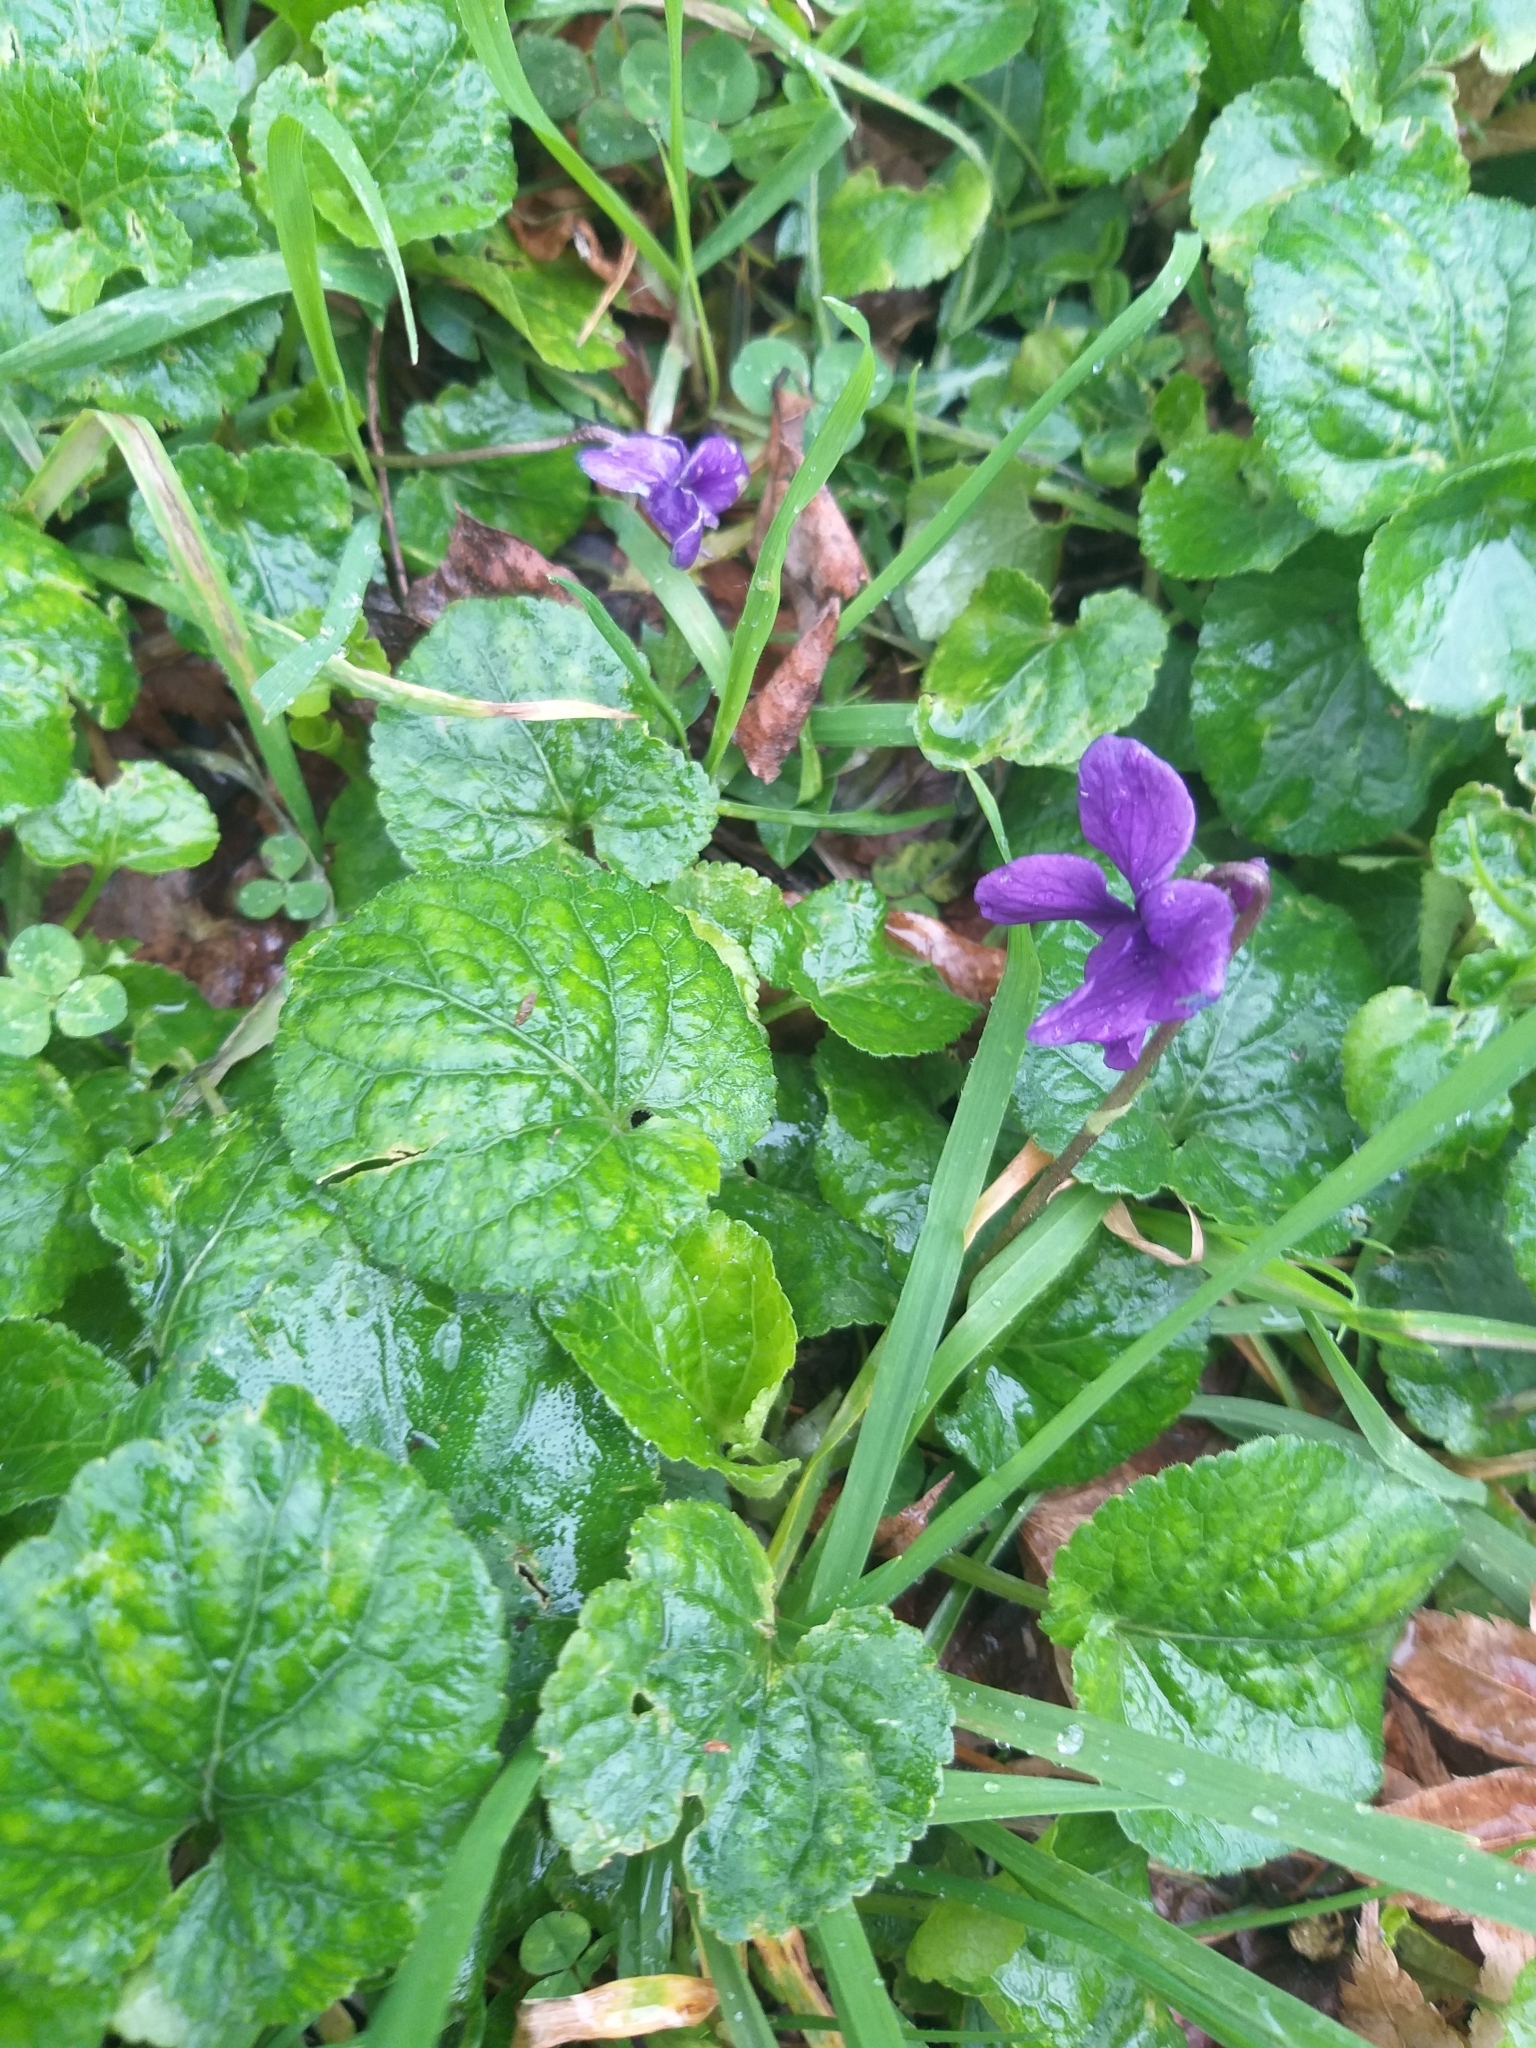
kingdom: Plantae
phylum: Tracheophyta
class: Magnoliopsida
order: Malpighiales
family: Violaceae
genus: Viola
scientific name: Viola odorata
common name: Sweet violet
